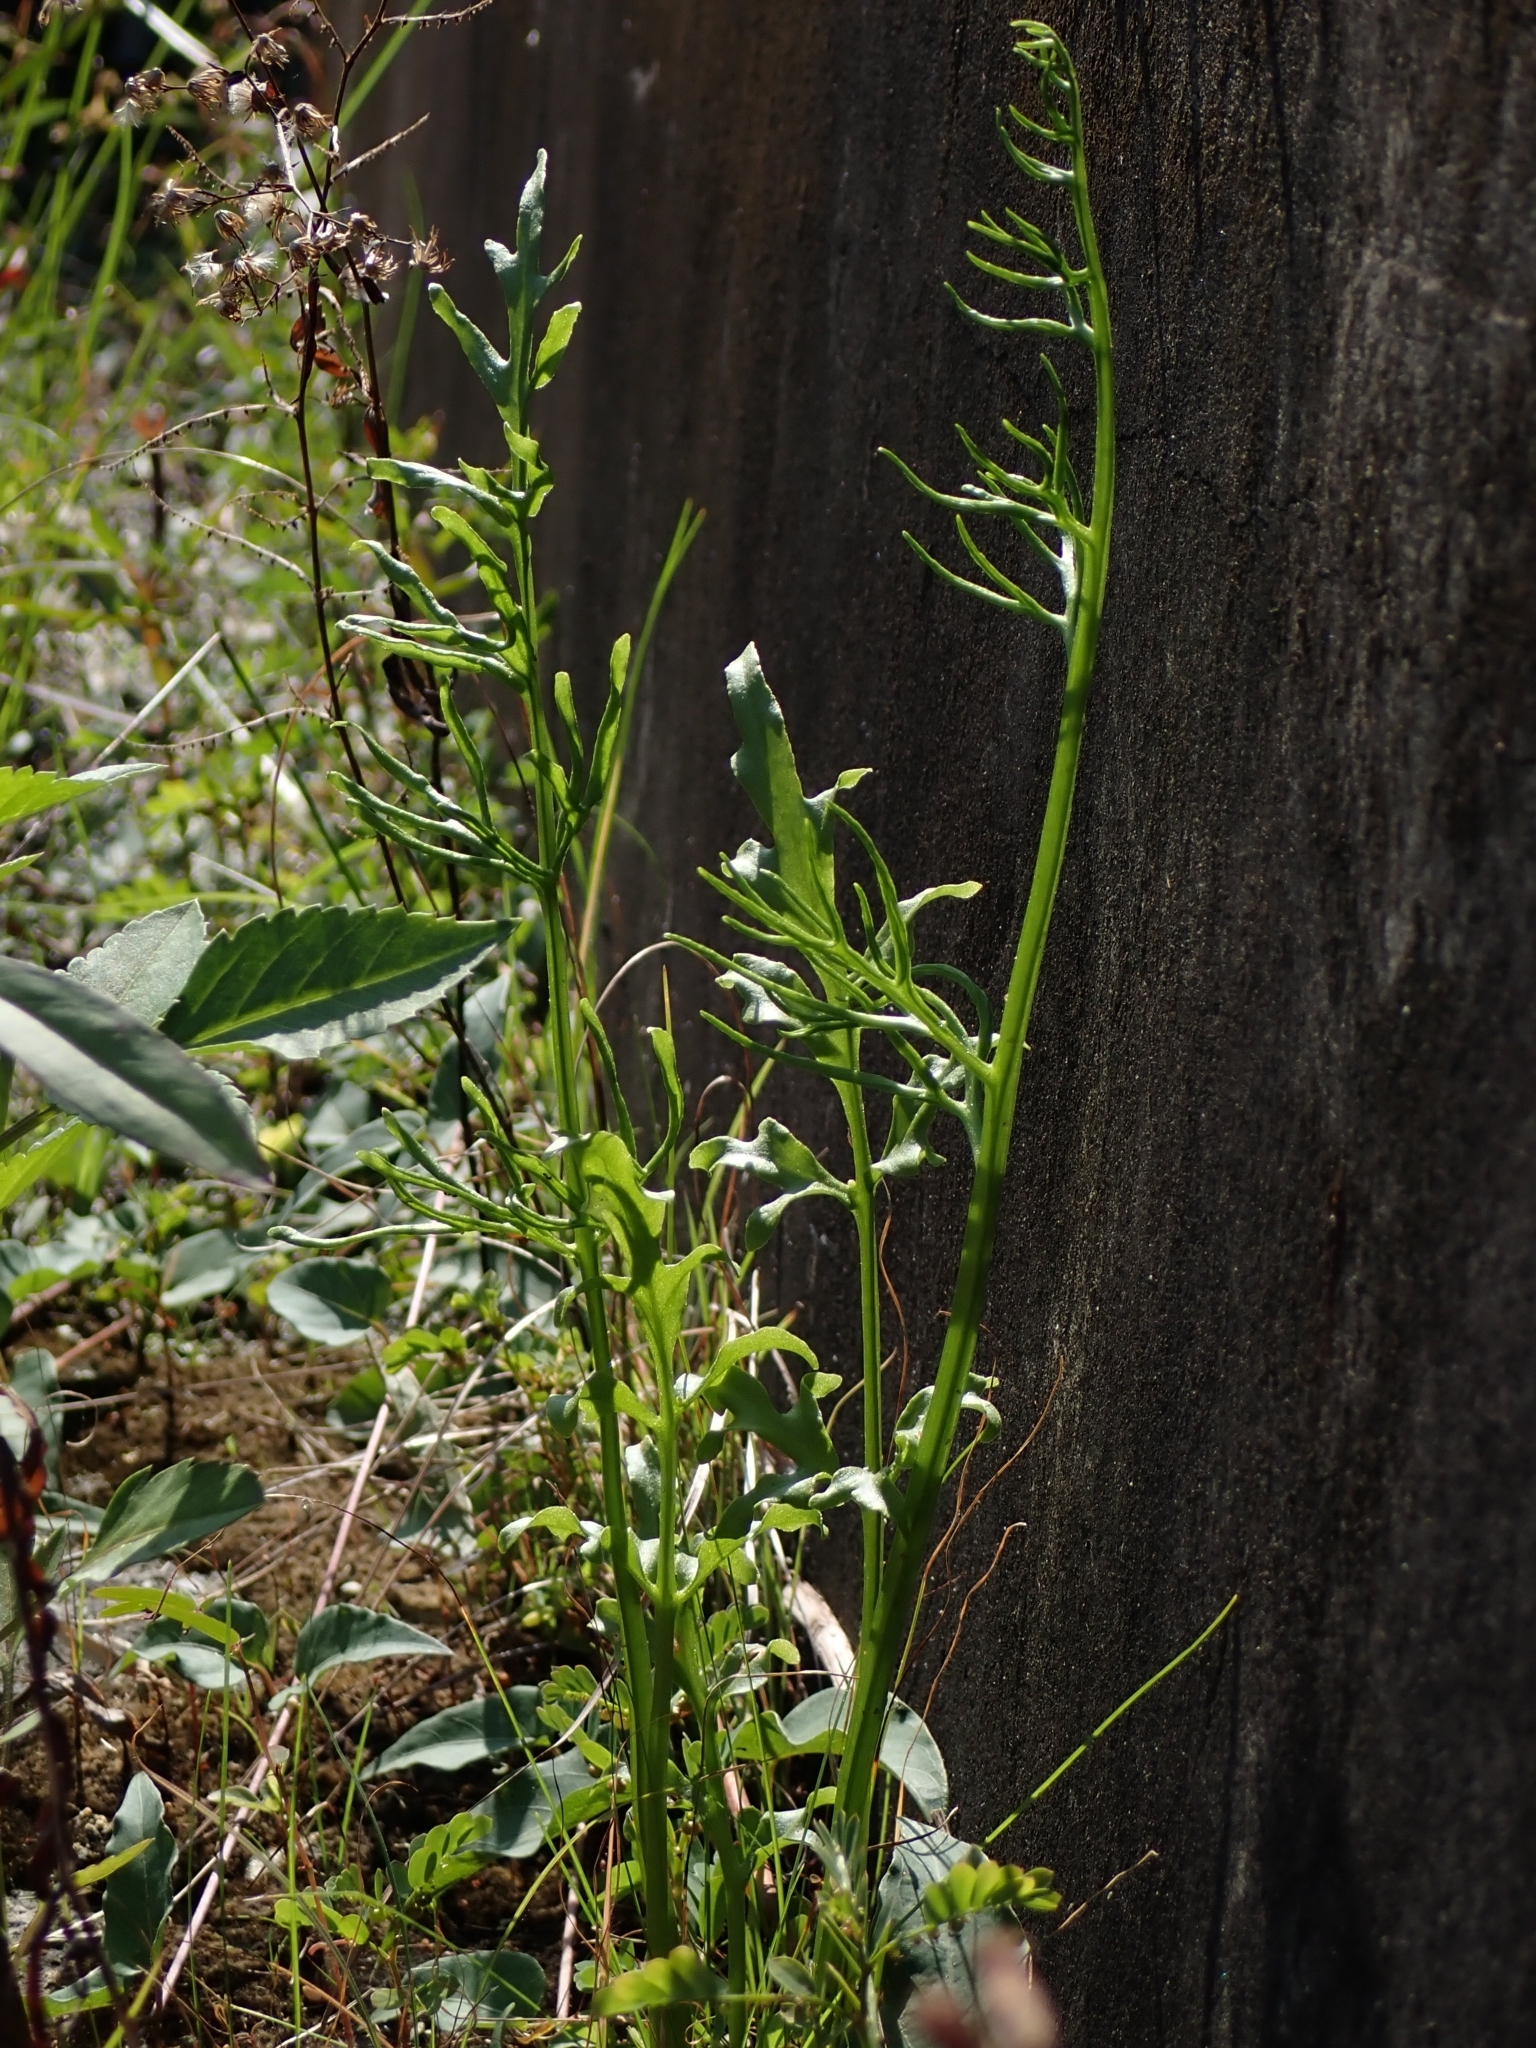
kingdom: Plantae
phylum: Tracheophyta
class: Polypodiopsida
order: Polypodiales
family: Pteridaceae
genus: Ceratopteris
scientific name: Ceratopteris thalictroides
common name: Water fern
